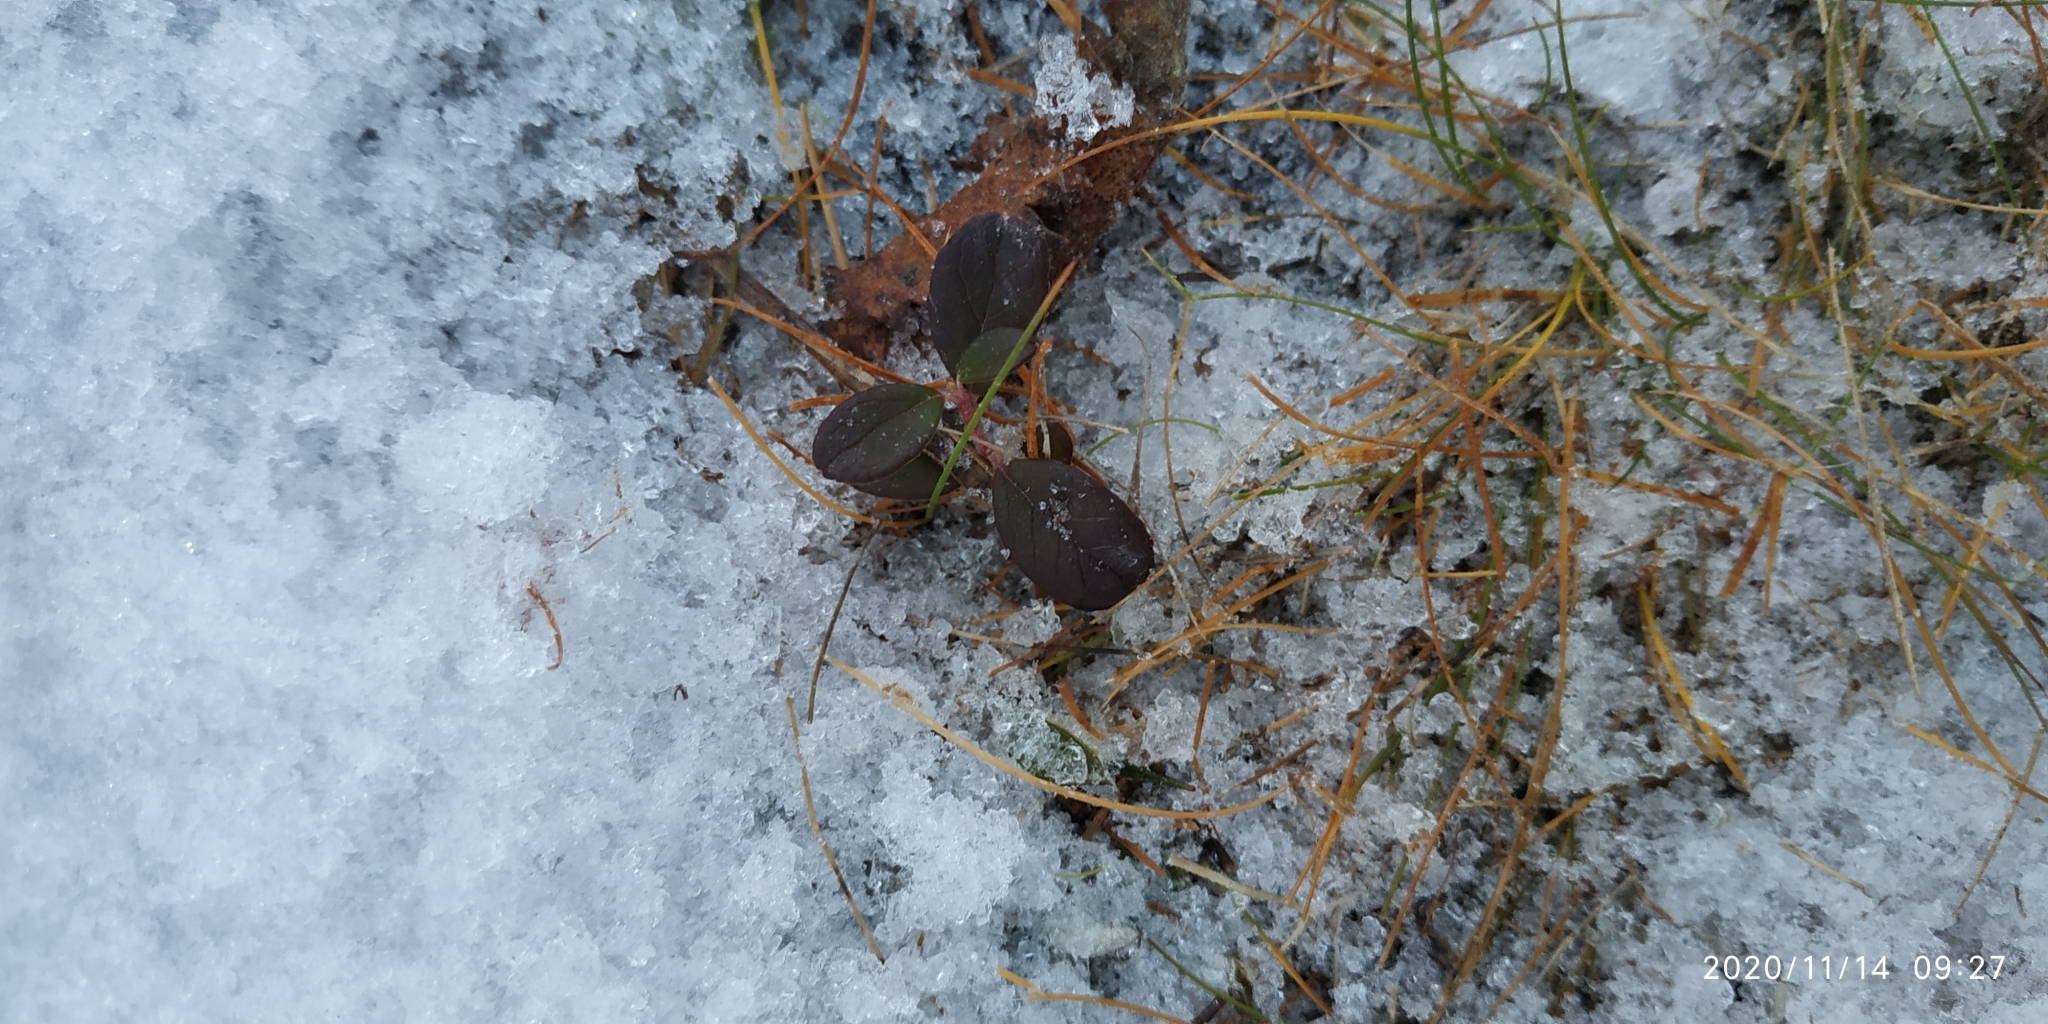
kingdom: Plantae
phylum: Tracheophyta
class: Magnoliopsida
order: Ericales
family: Ericaceae
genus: Vaccinium
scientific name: Vaccinium vitis-idaea
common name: Cowberry
